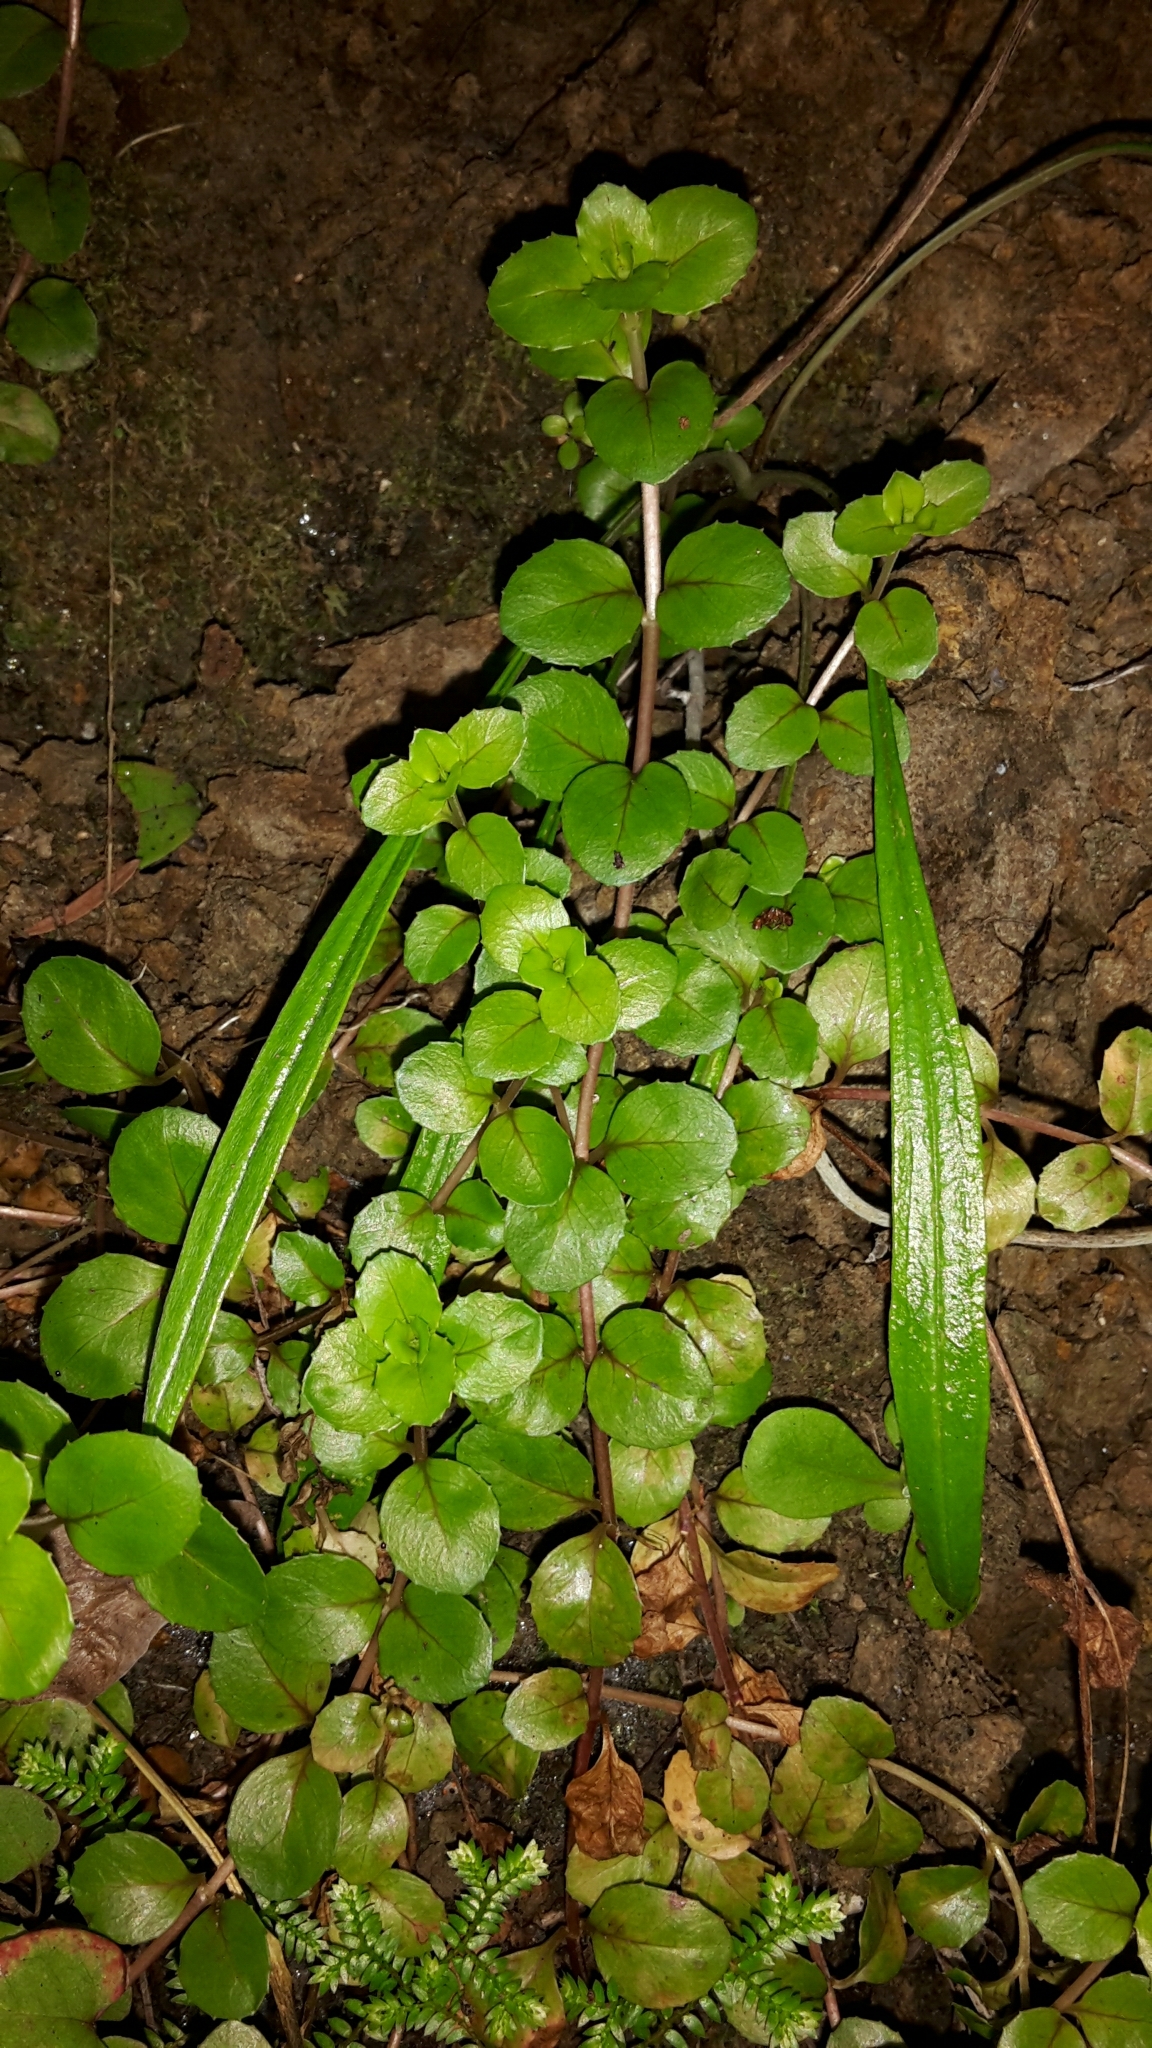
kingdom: Plantae
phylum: Tracheophyta
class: Magnoliopsida
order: Myrtales
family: Onagraceae
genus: Epilobium
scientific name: Epilobium rotundifolium
